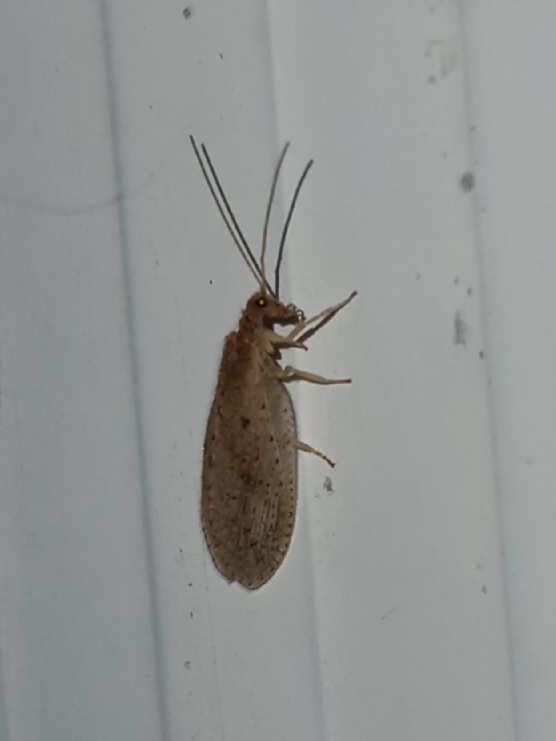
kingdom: Animalia
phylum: Arthropoda
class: Insecta
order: Neuroptera
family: Hemerobiidae
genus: Micromus
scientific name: Micromus subanticus
